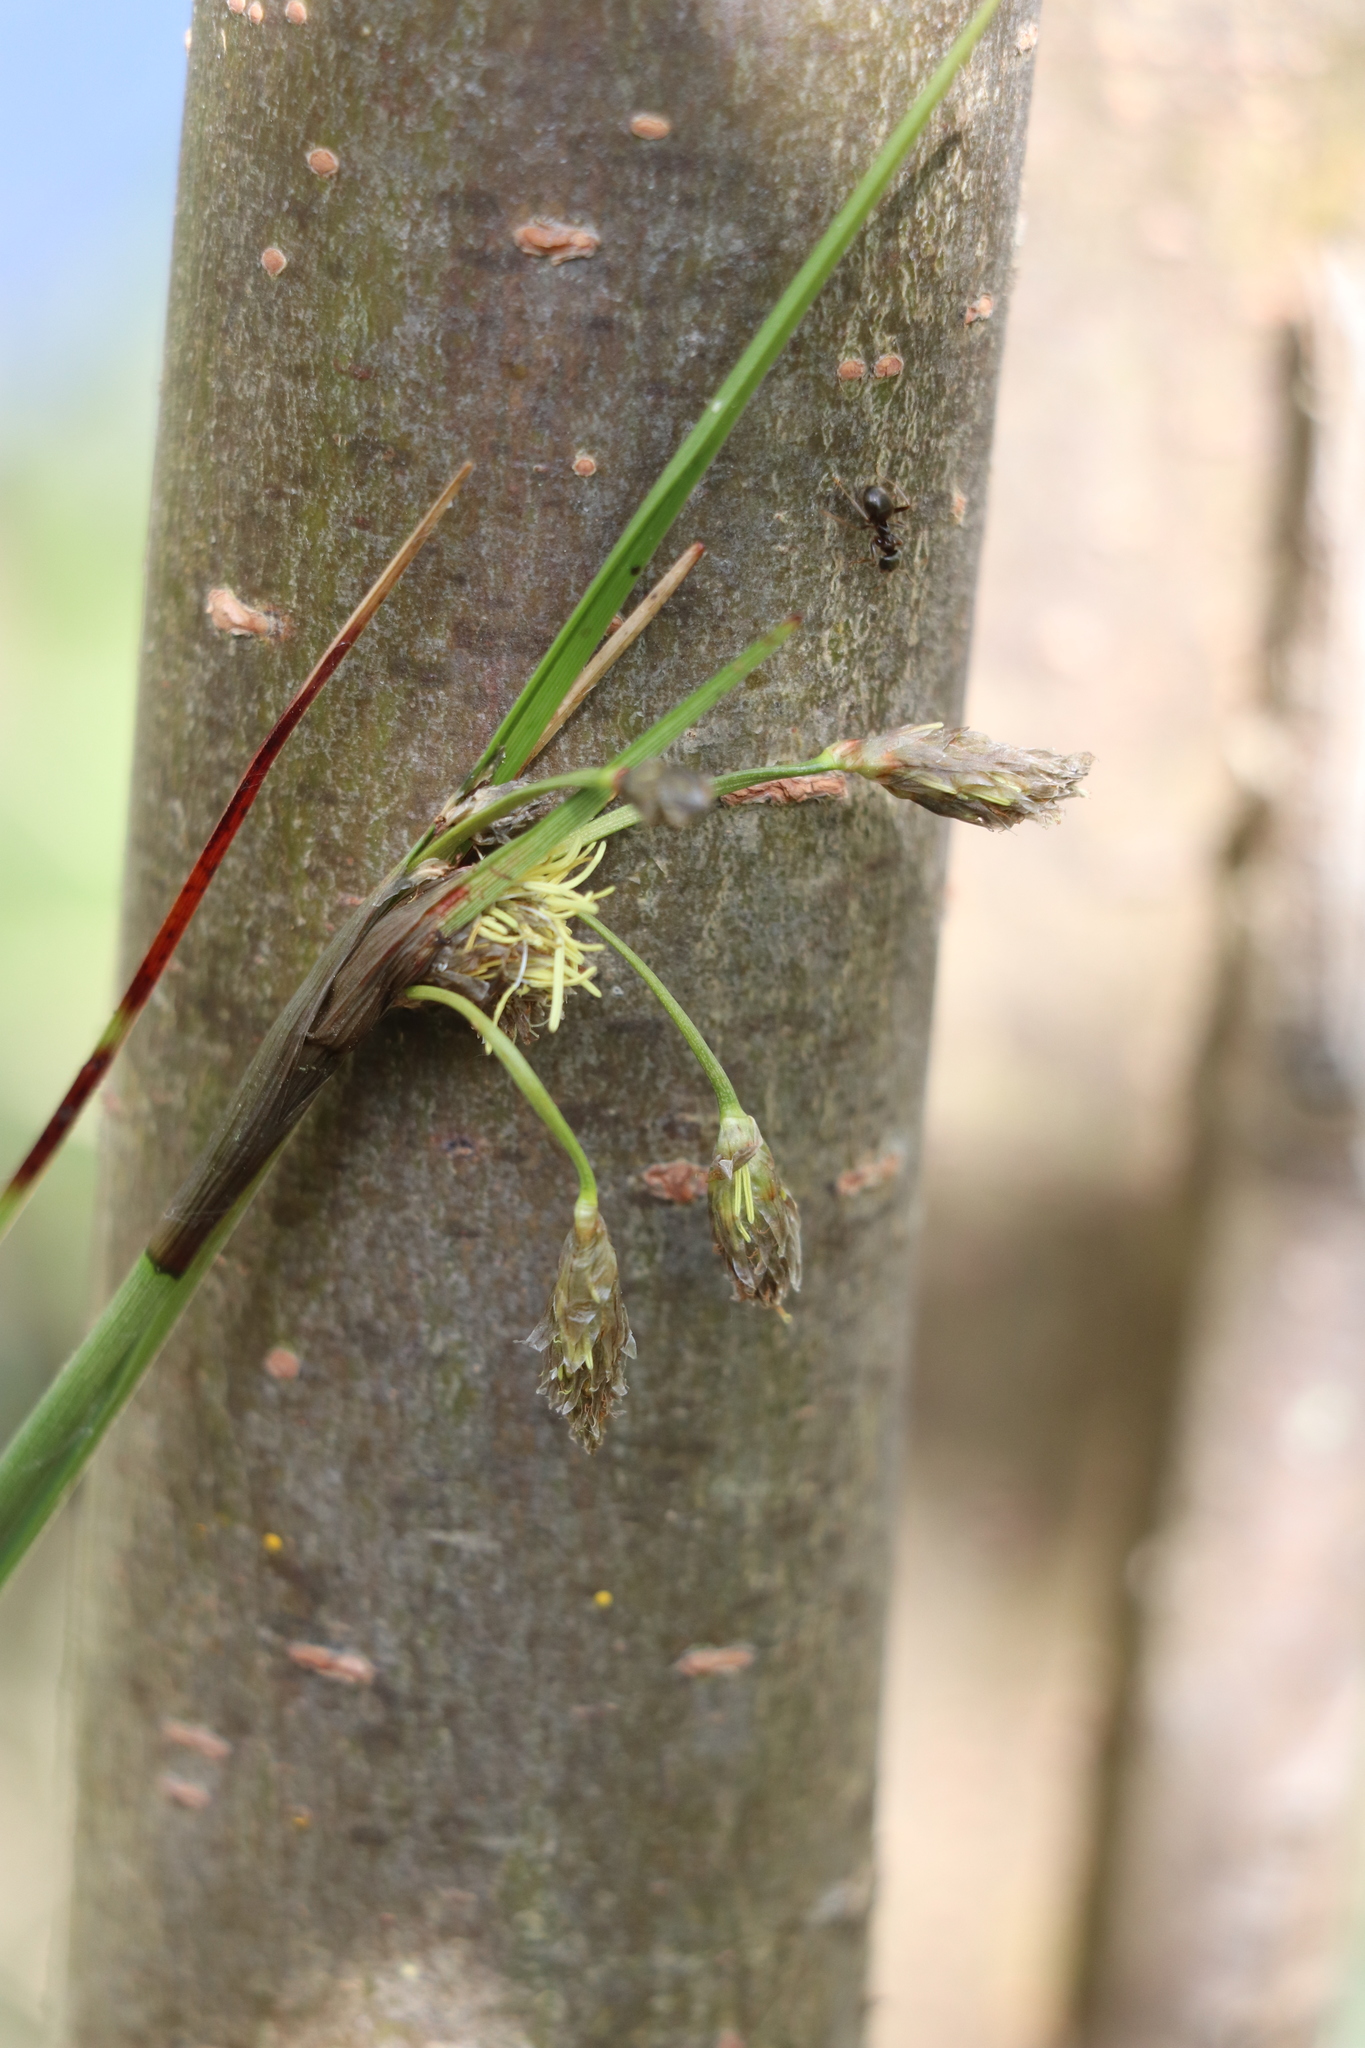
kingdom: Plantae
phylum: Tracheophyta
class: Liliopsida
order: Poales
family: Cyperaceae
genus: Eriophorum
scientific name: Eriophorum angustifolium
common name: Common cottongrass
